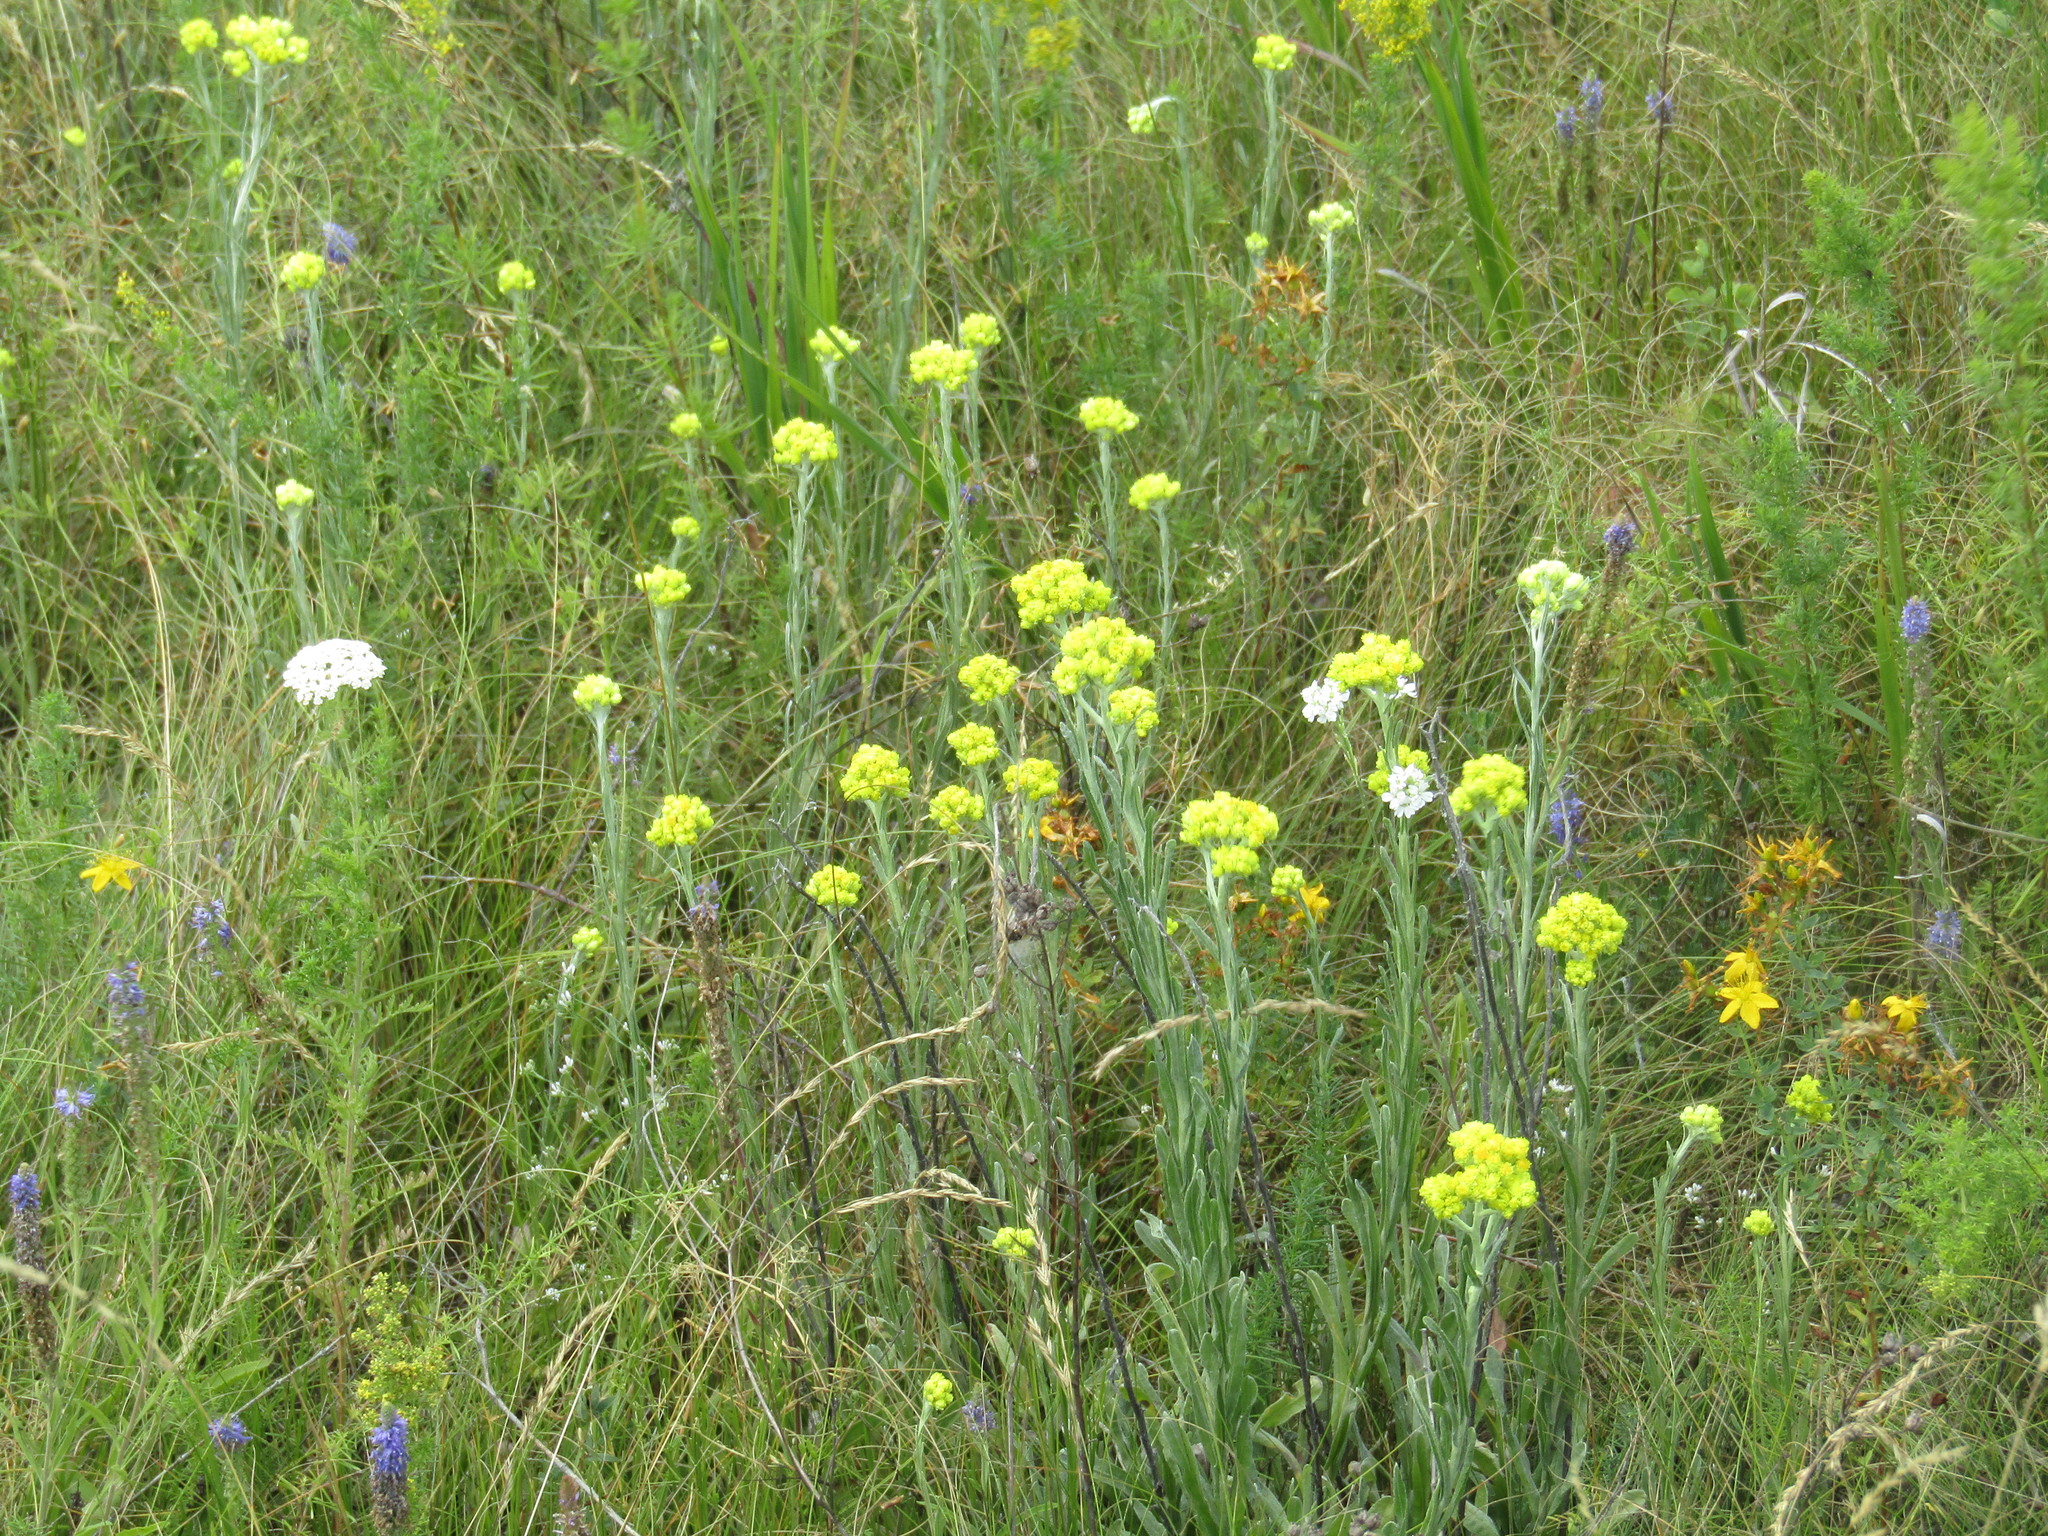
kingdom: Plantae
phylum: Tracheophyta
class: Magnoliopsida
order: Asterales
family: Asteraceae
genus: Helichrysum
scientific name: Helichrysum arenarium
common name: Strawflower
